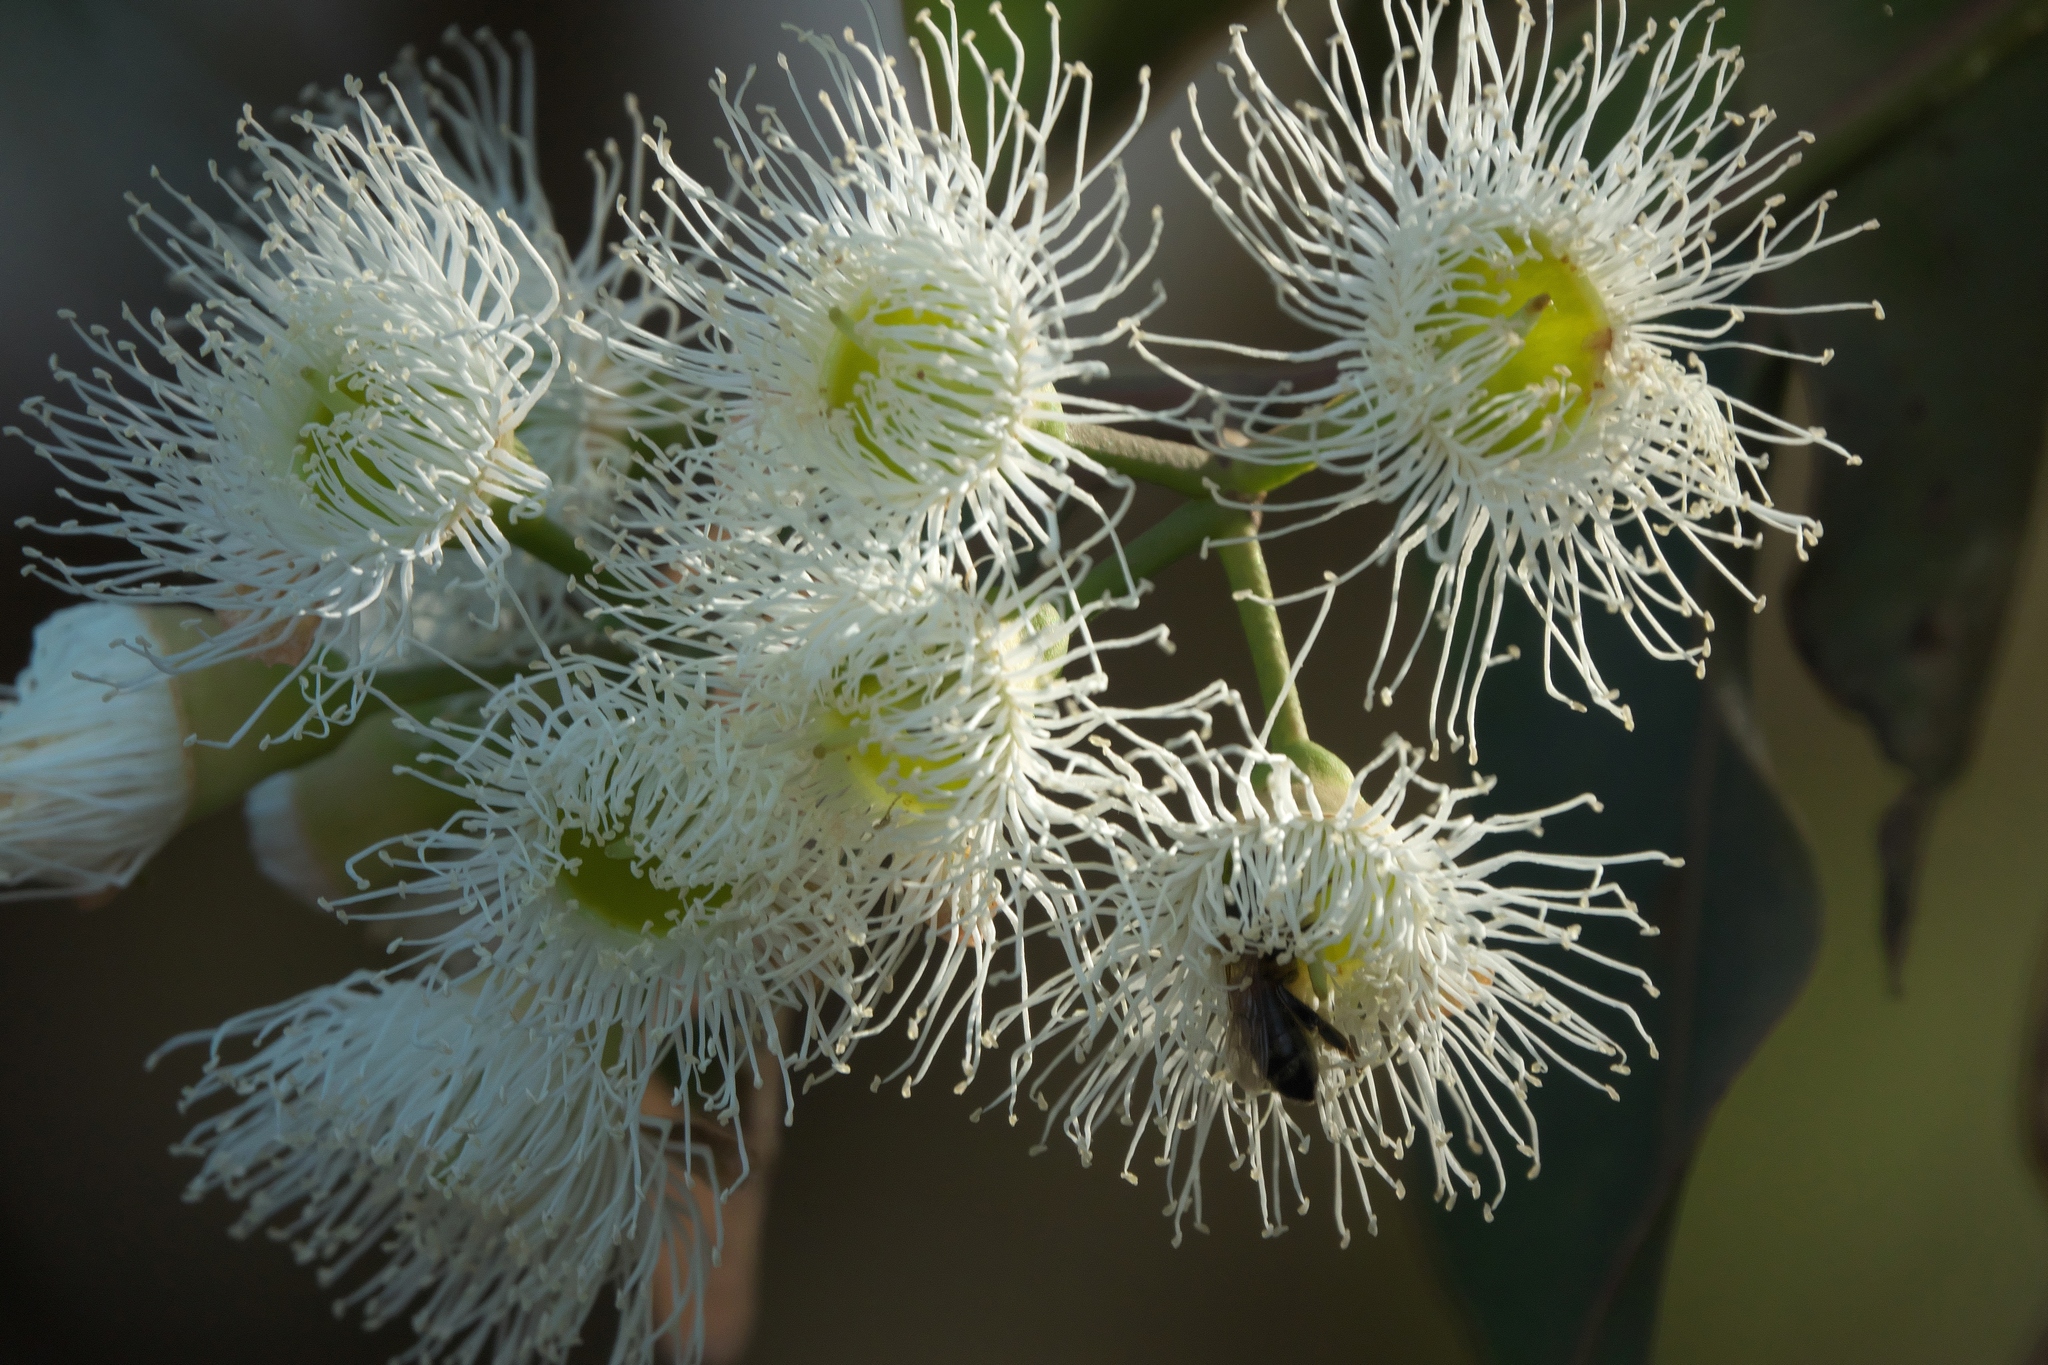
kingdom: Plantae
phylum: Tracheophyta
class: Magnoliopsida
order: Myrtales
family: Myrtaceae
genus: Corymbia
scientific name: Corymbia calophylla
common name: Marri
